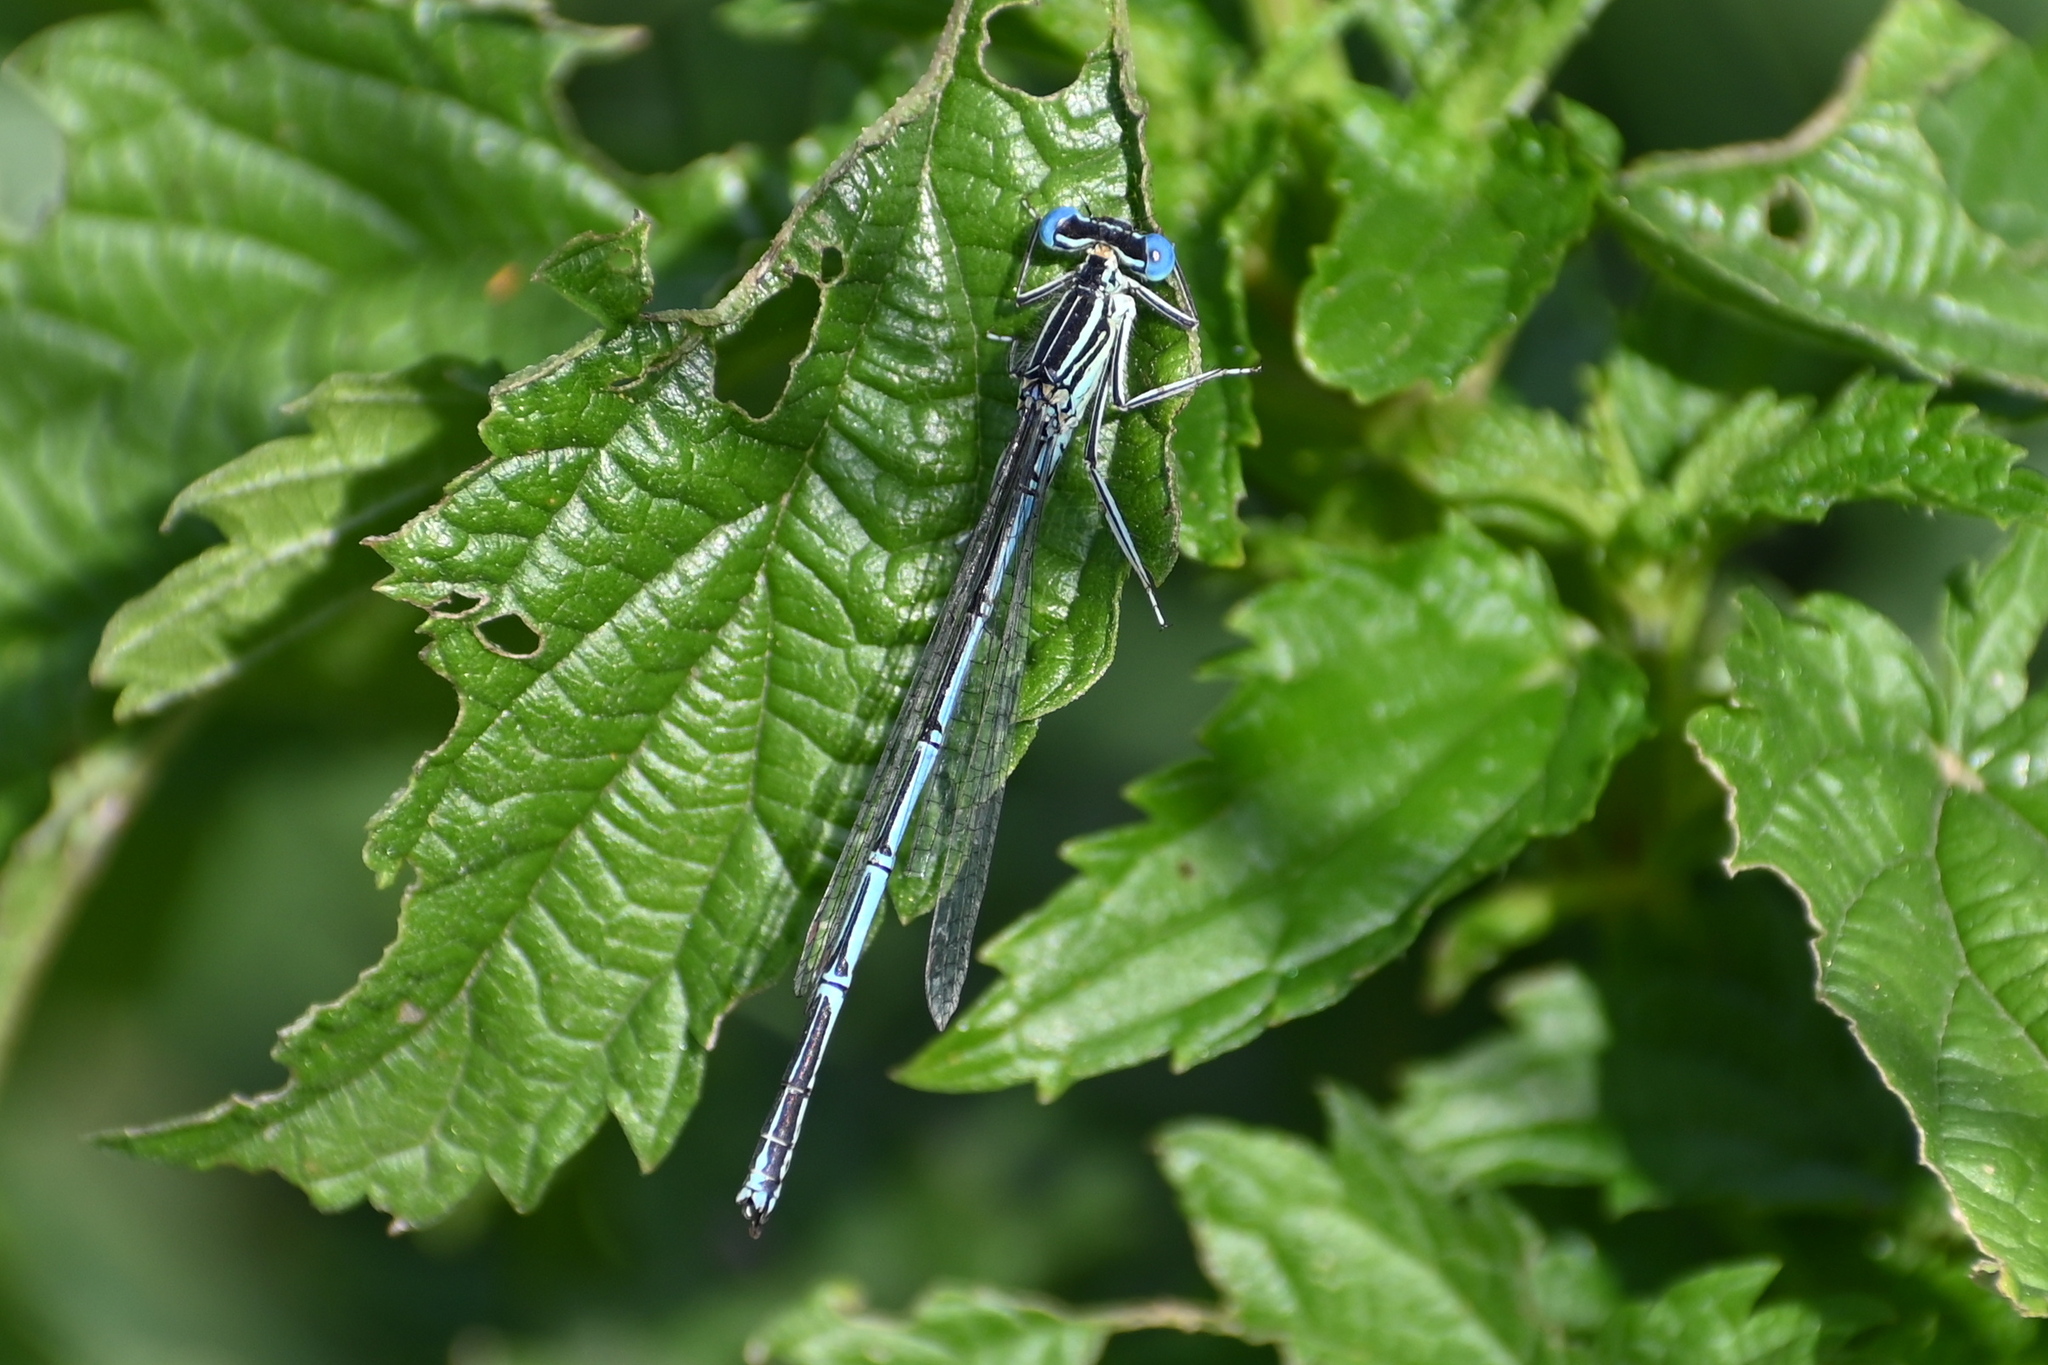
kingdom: Animalia
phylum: Arthropoda
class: Insecta
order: Odonata
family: Platycnemididae
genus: Platycnemis
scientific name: Platycnemis pennipes
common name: White-legged damselfly
